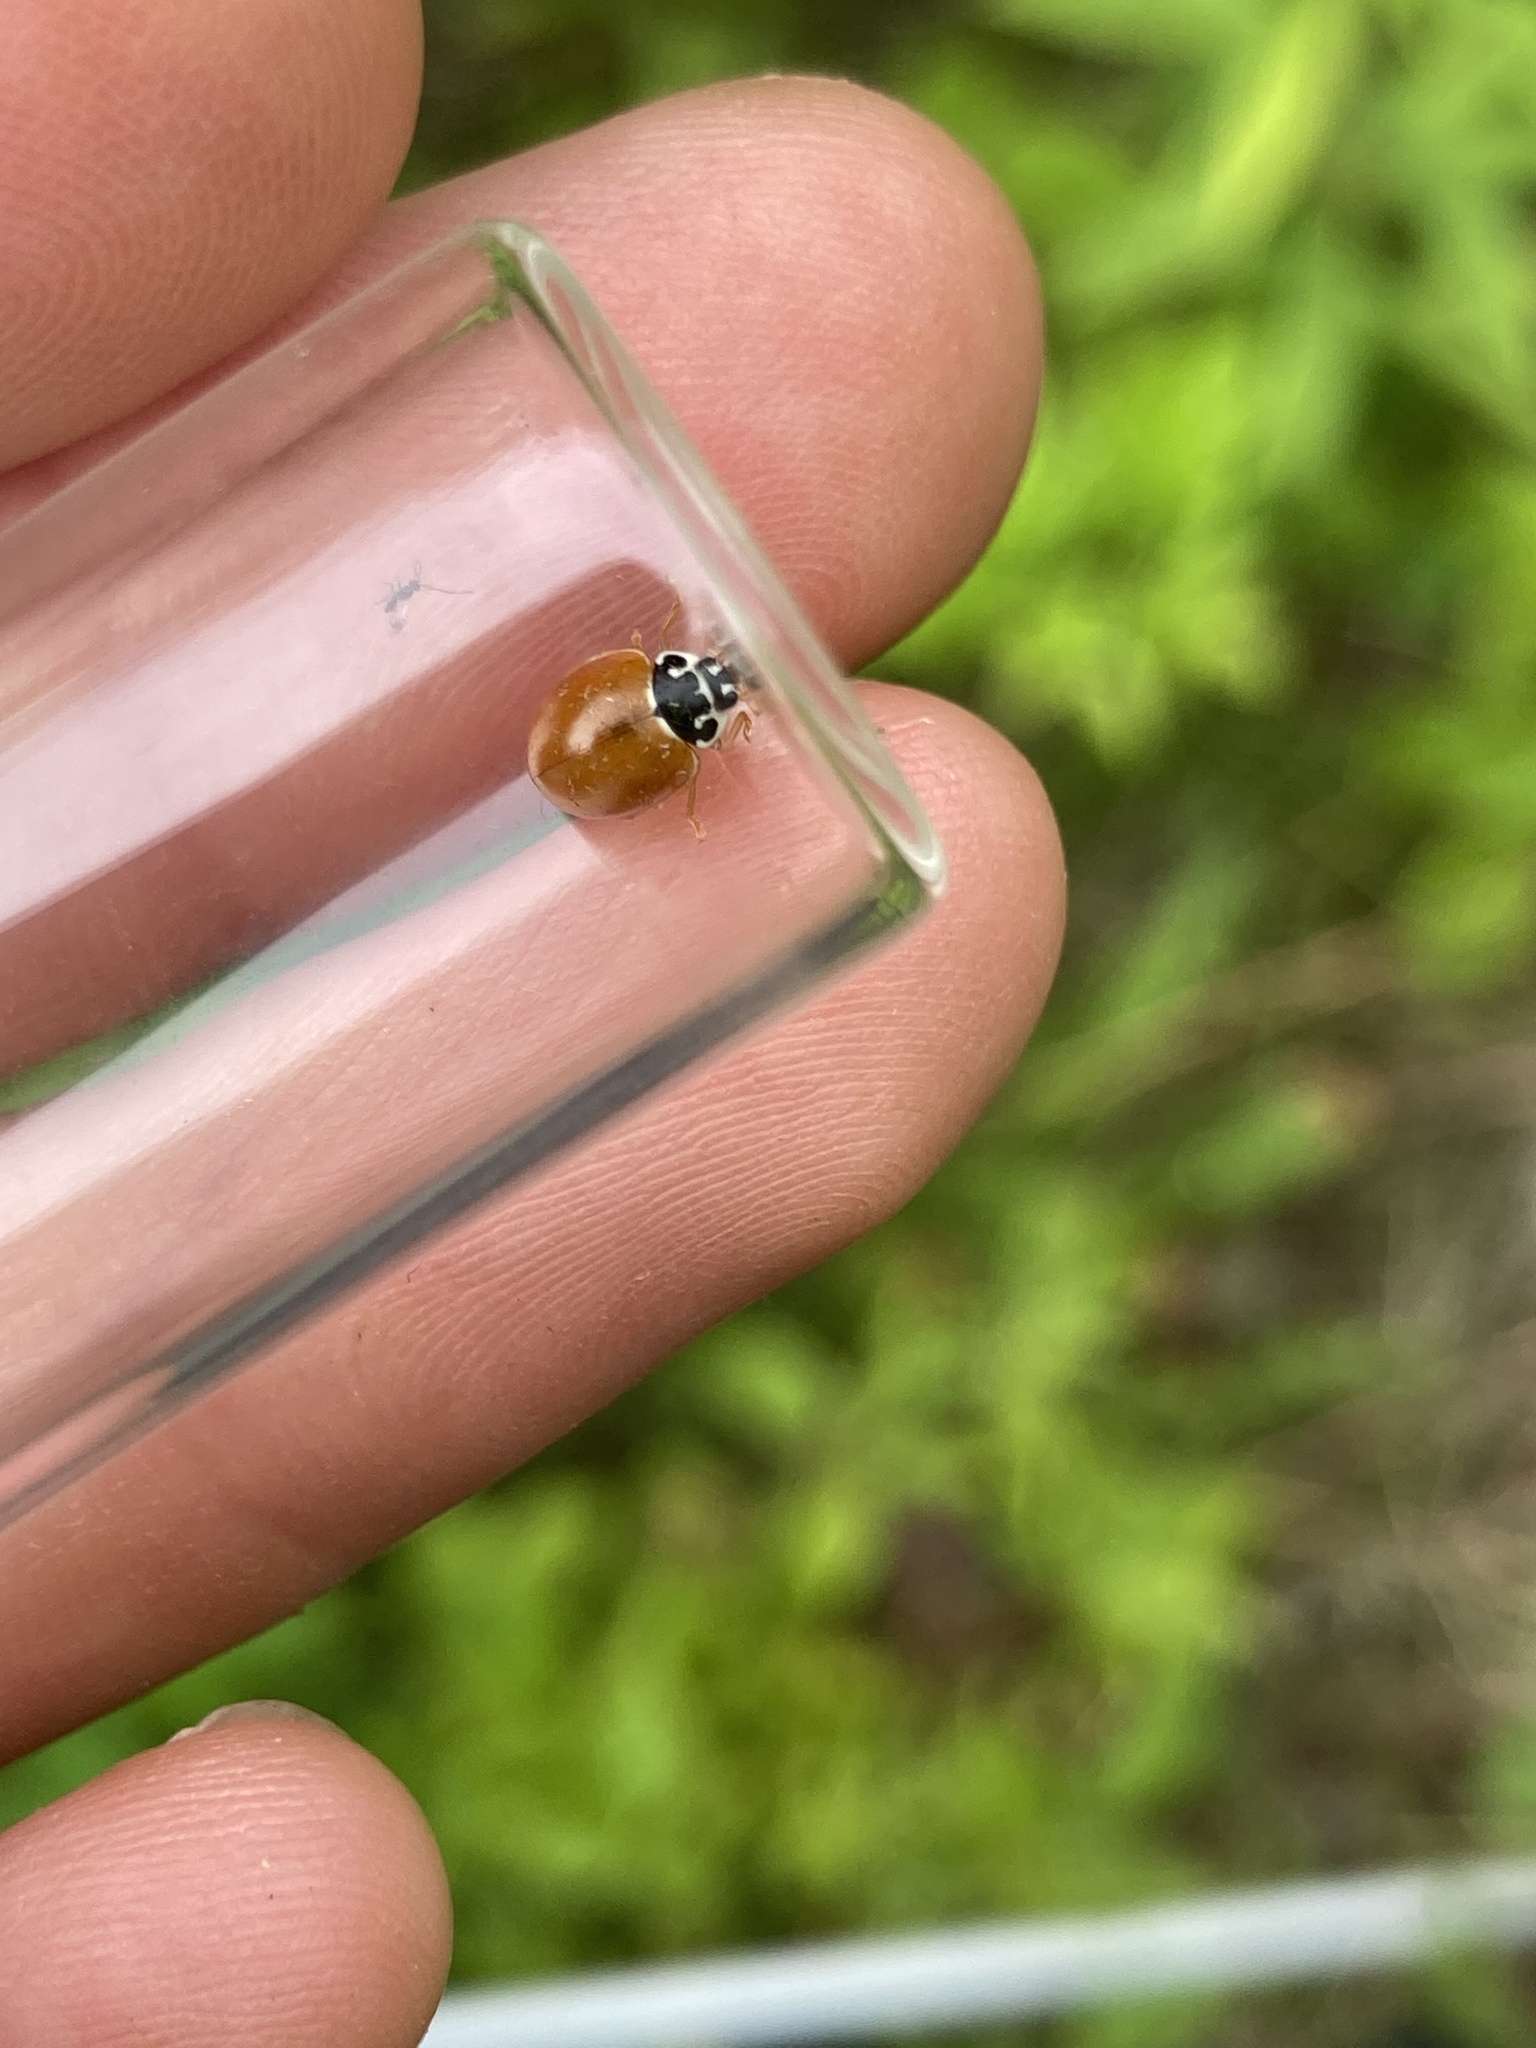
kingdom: Animalia
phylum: Arthropoda
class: Insecta
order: Coleoptera
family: Coccinellidae
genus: Cycloneda
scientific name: Cycloneda munda
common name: Polished lady beetle
